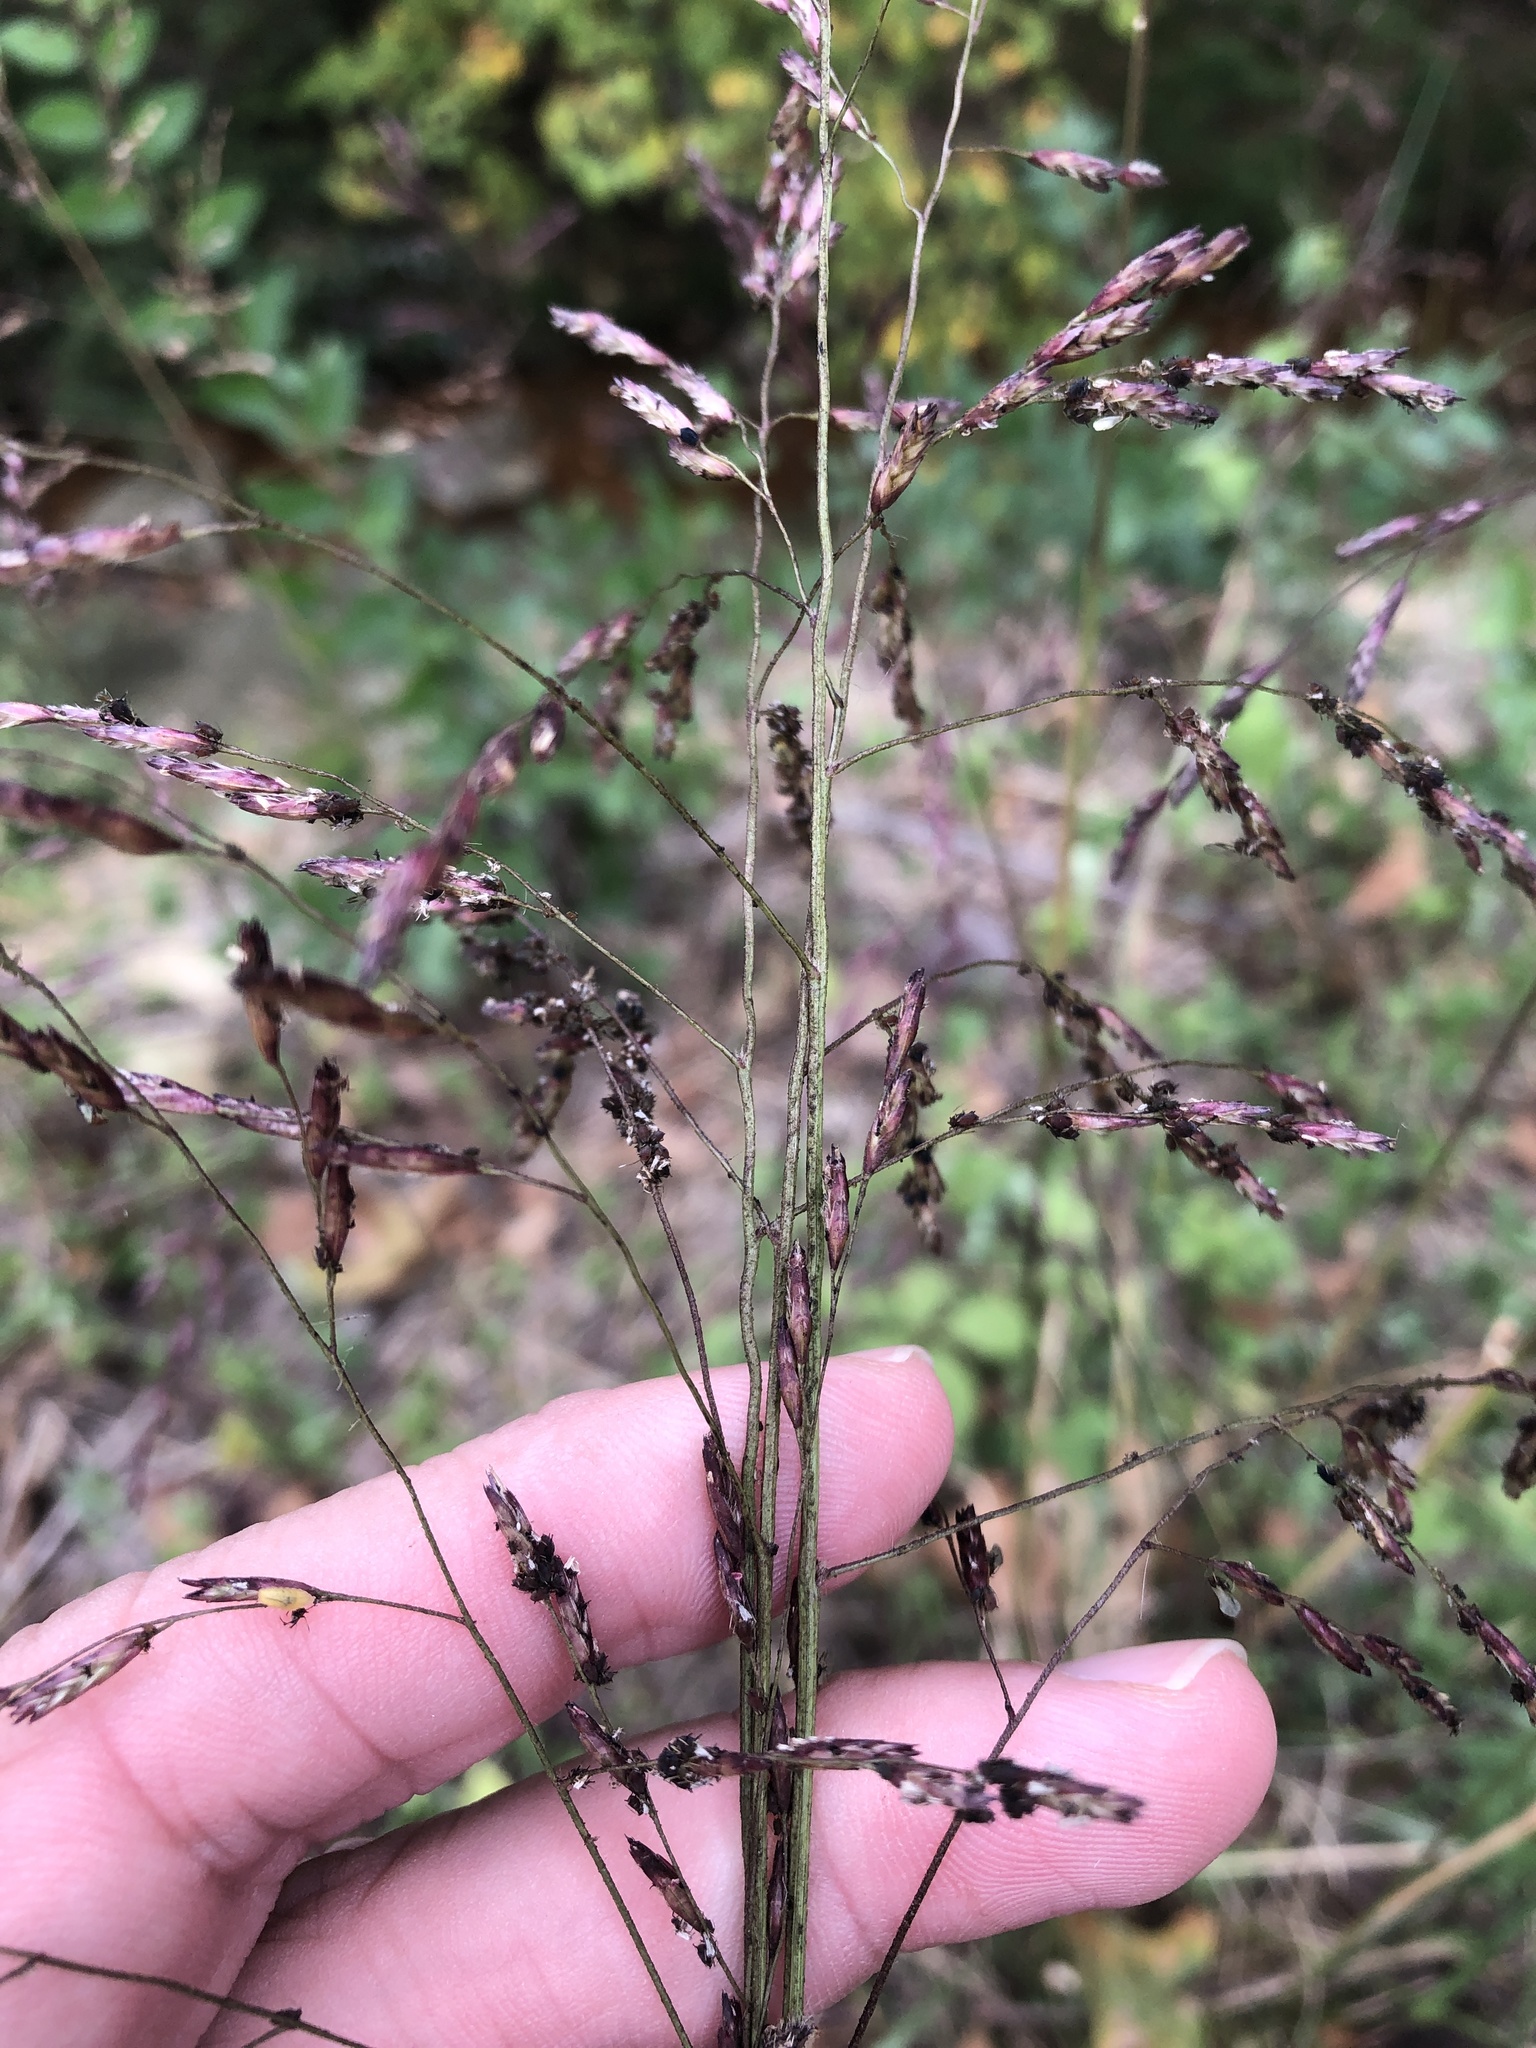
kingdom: Plantae
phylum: Tracheophyta
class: Liliopsida
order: Poales
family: Poaceae
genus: Tridens
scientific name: Tridens flavus
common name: Purpletop
